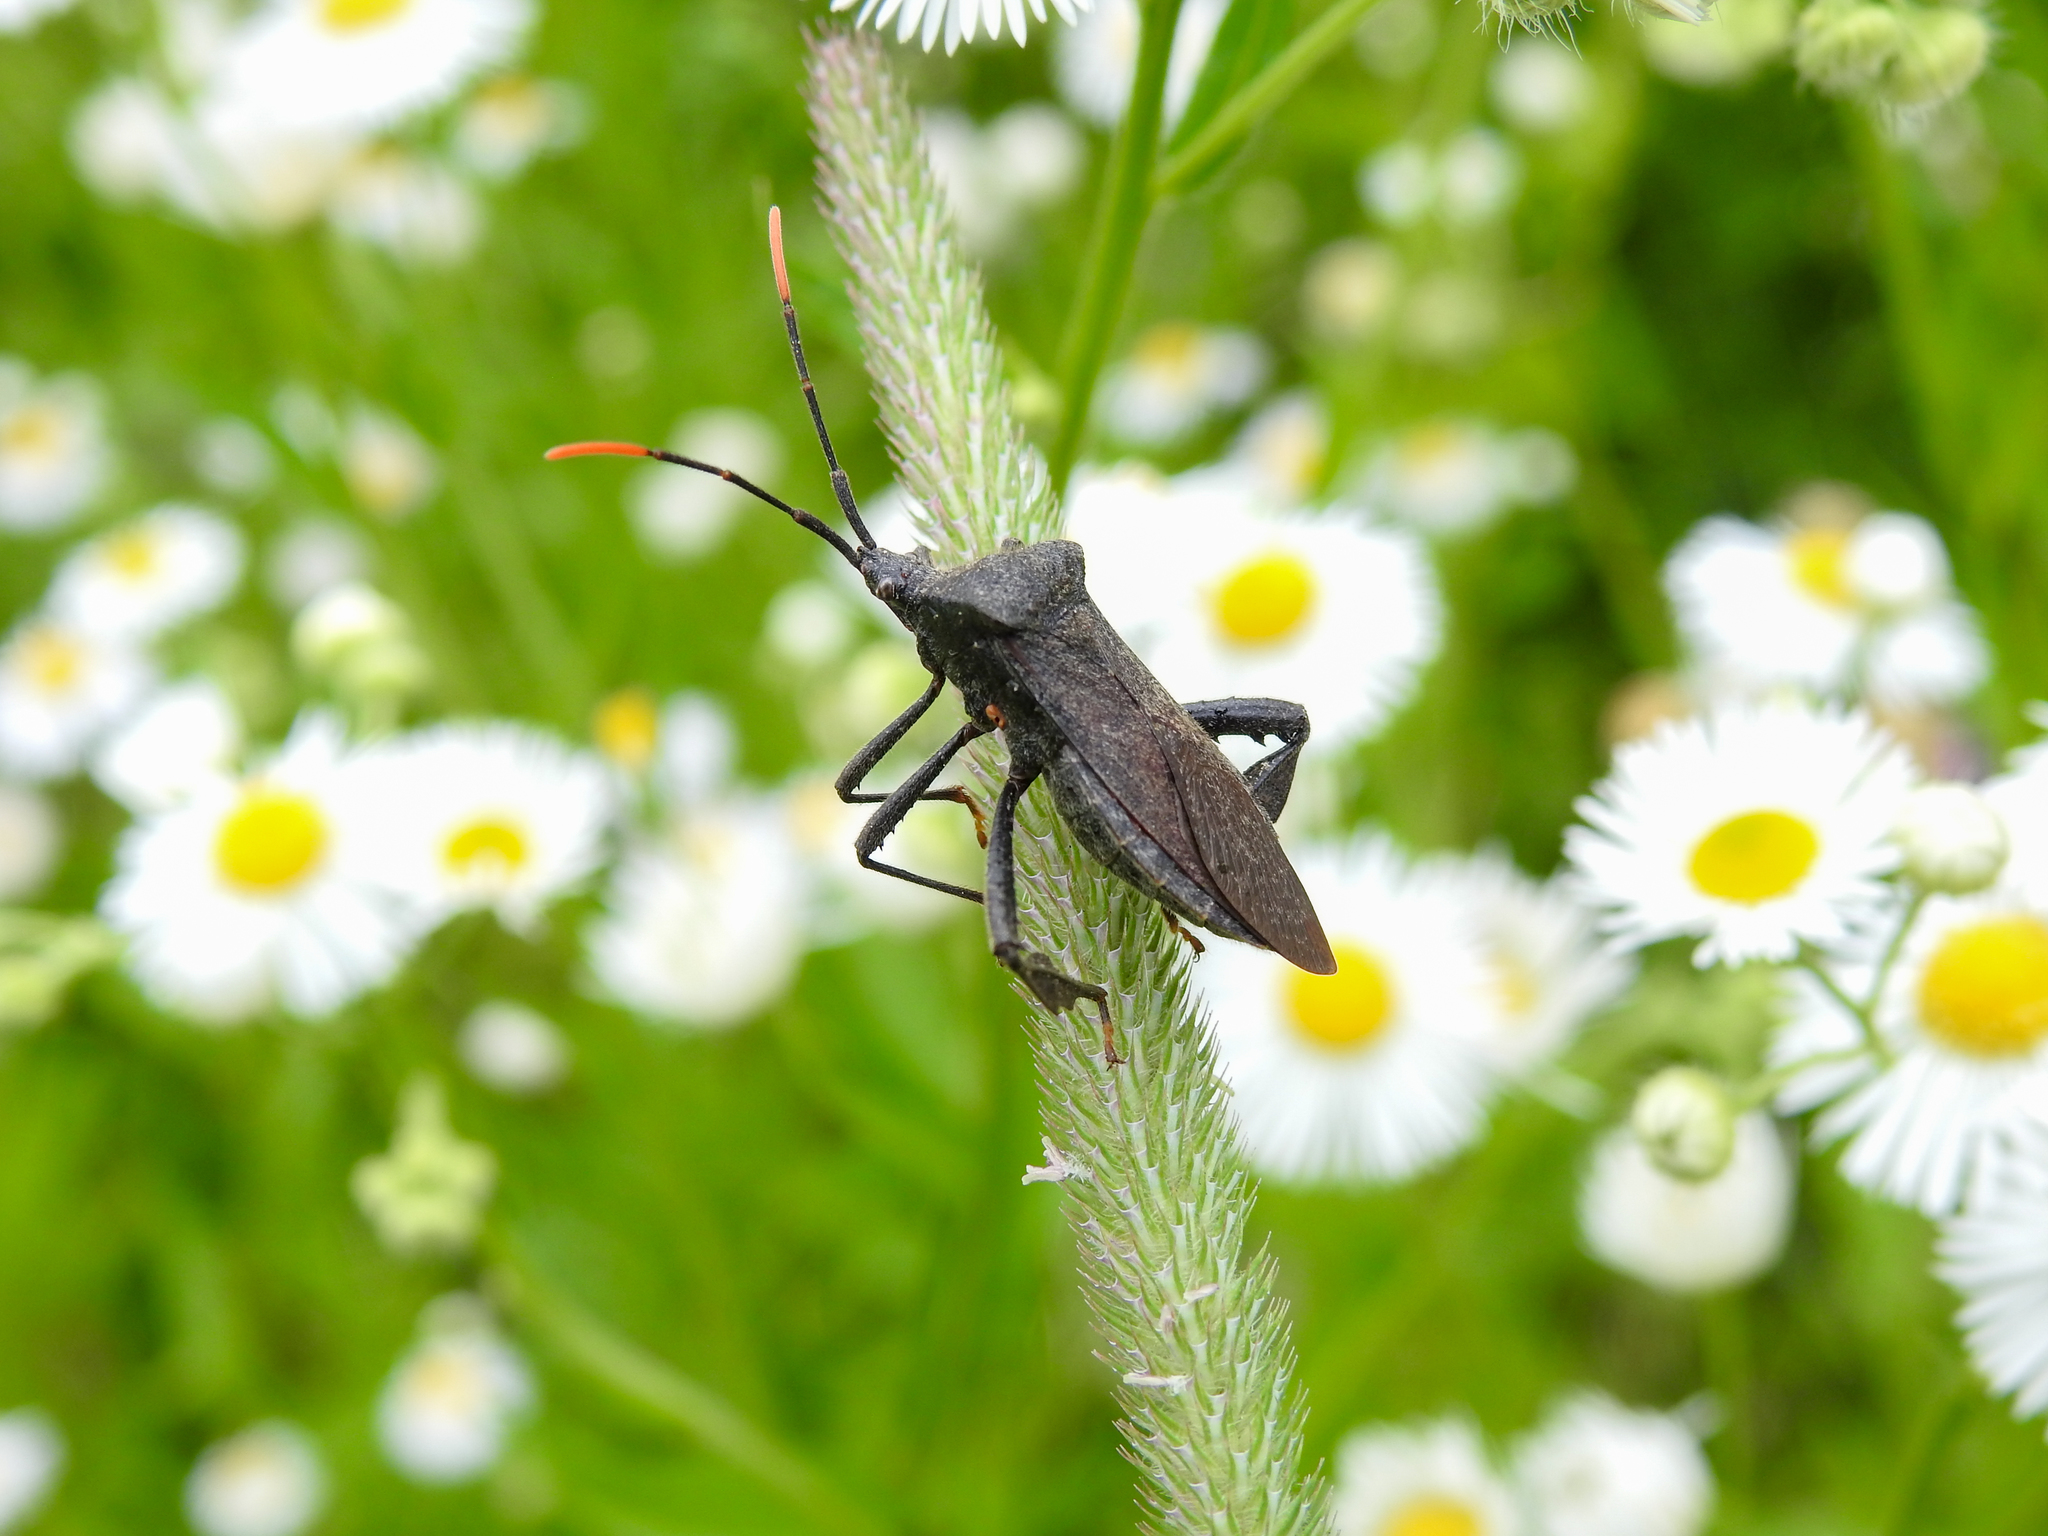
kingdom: Animalia
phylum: Arthropoda
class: Insecta
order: Hemiptera
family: Coreidae
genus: Acanthocephala
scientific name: Acanthocephala terminalis
